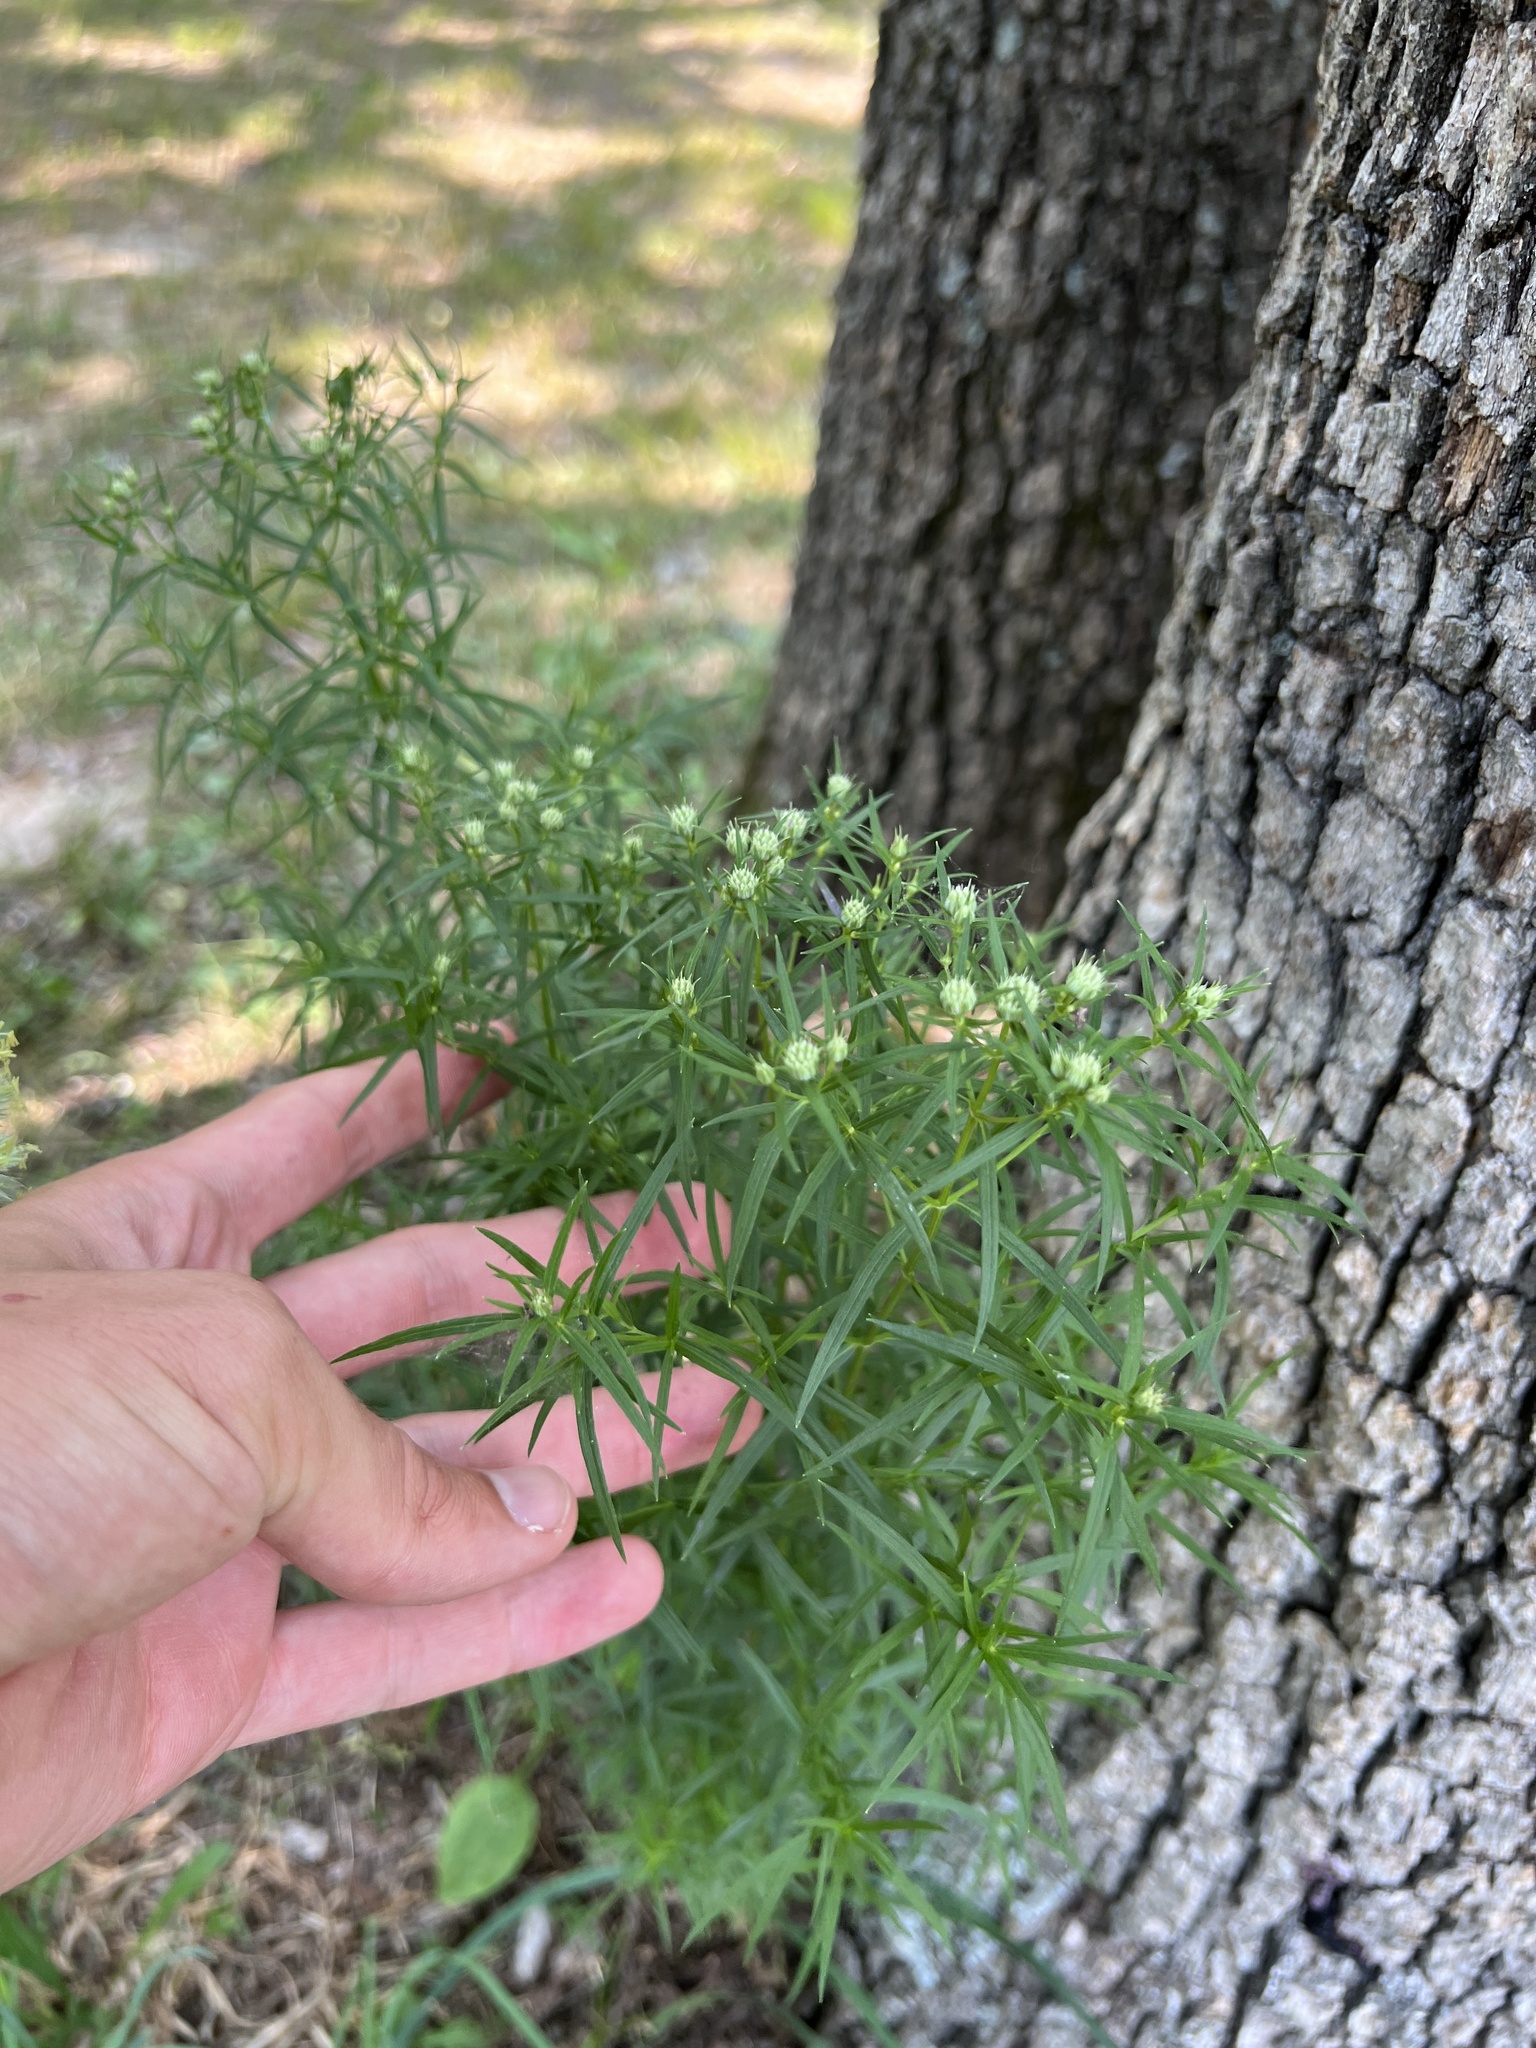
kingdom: Plantae
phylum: Tracheophyta
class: Magnoliopsida
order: Lamiales
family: Lamiaceae
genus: Pycnanthemum
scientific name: Pycnanthemum tenuifolium
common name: Narrow-leaf mountain-mint
